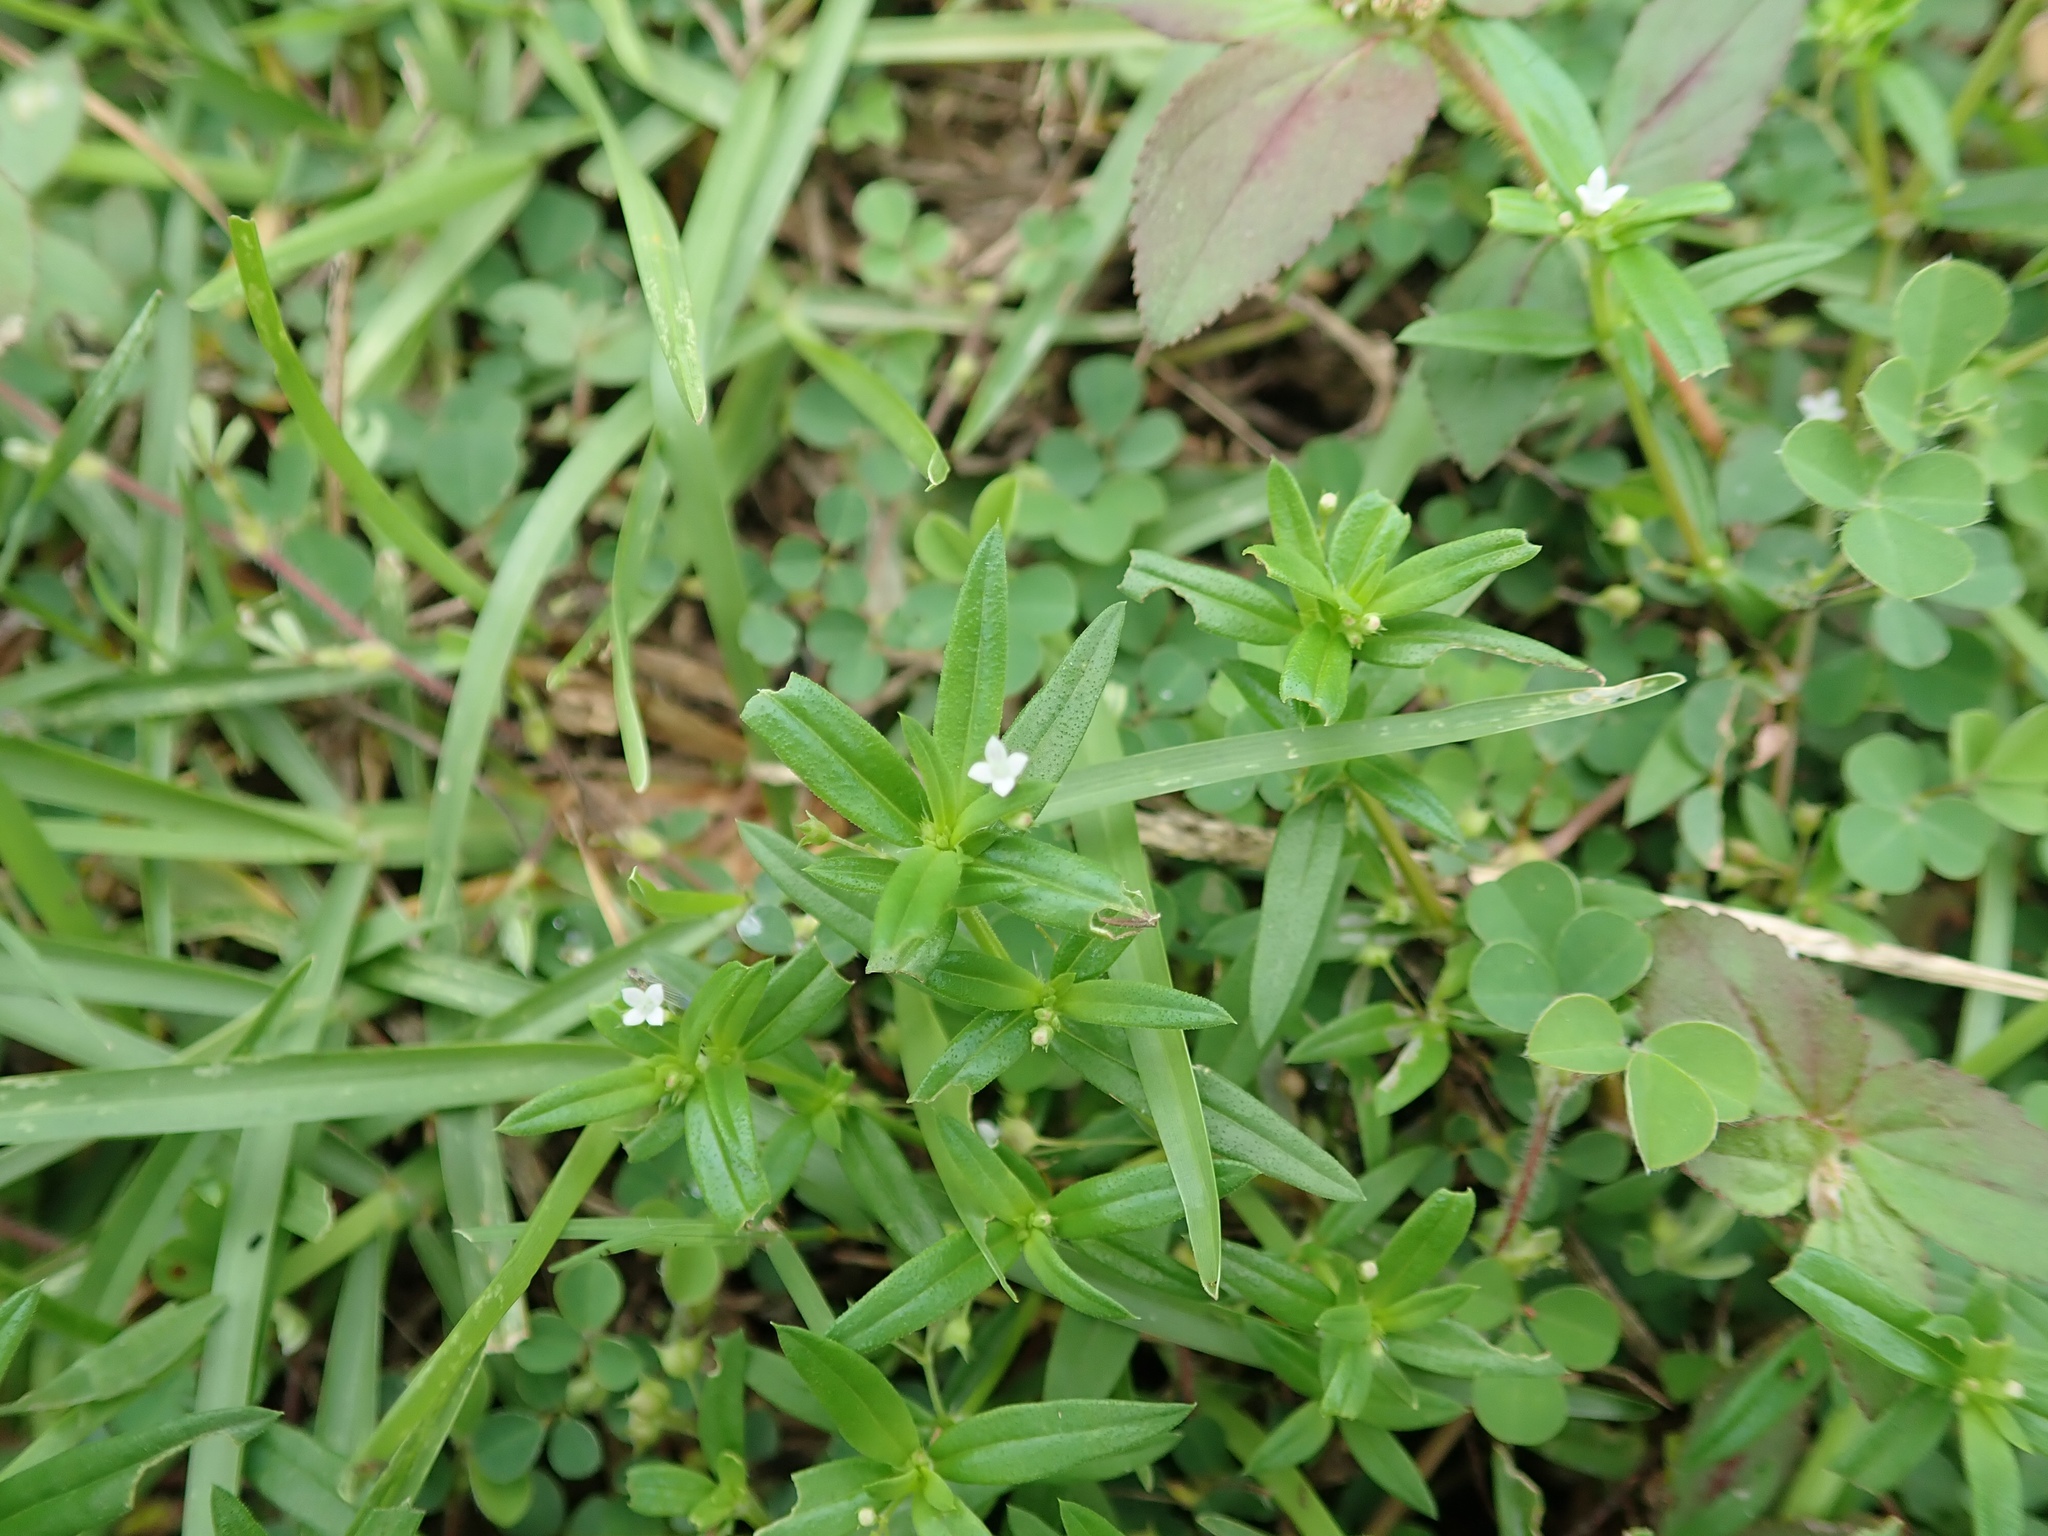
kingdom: Plantae
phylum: Tracheophyta
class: Magnoliopsida
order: Gentianales
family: Rubiaceae
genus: Oldenlandia
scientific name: Oldenlandia corymbosa
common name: Flat-top mille graines
